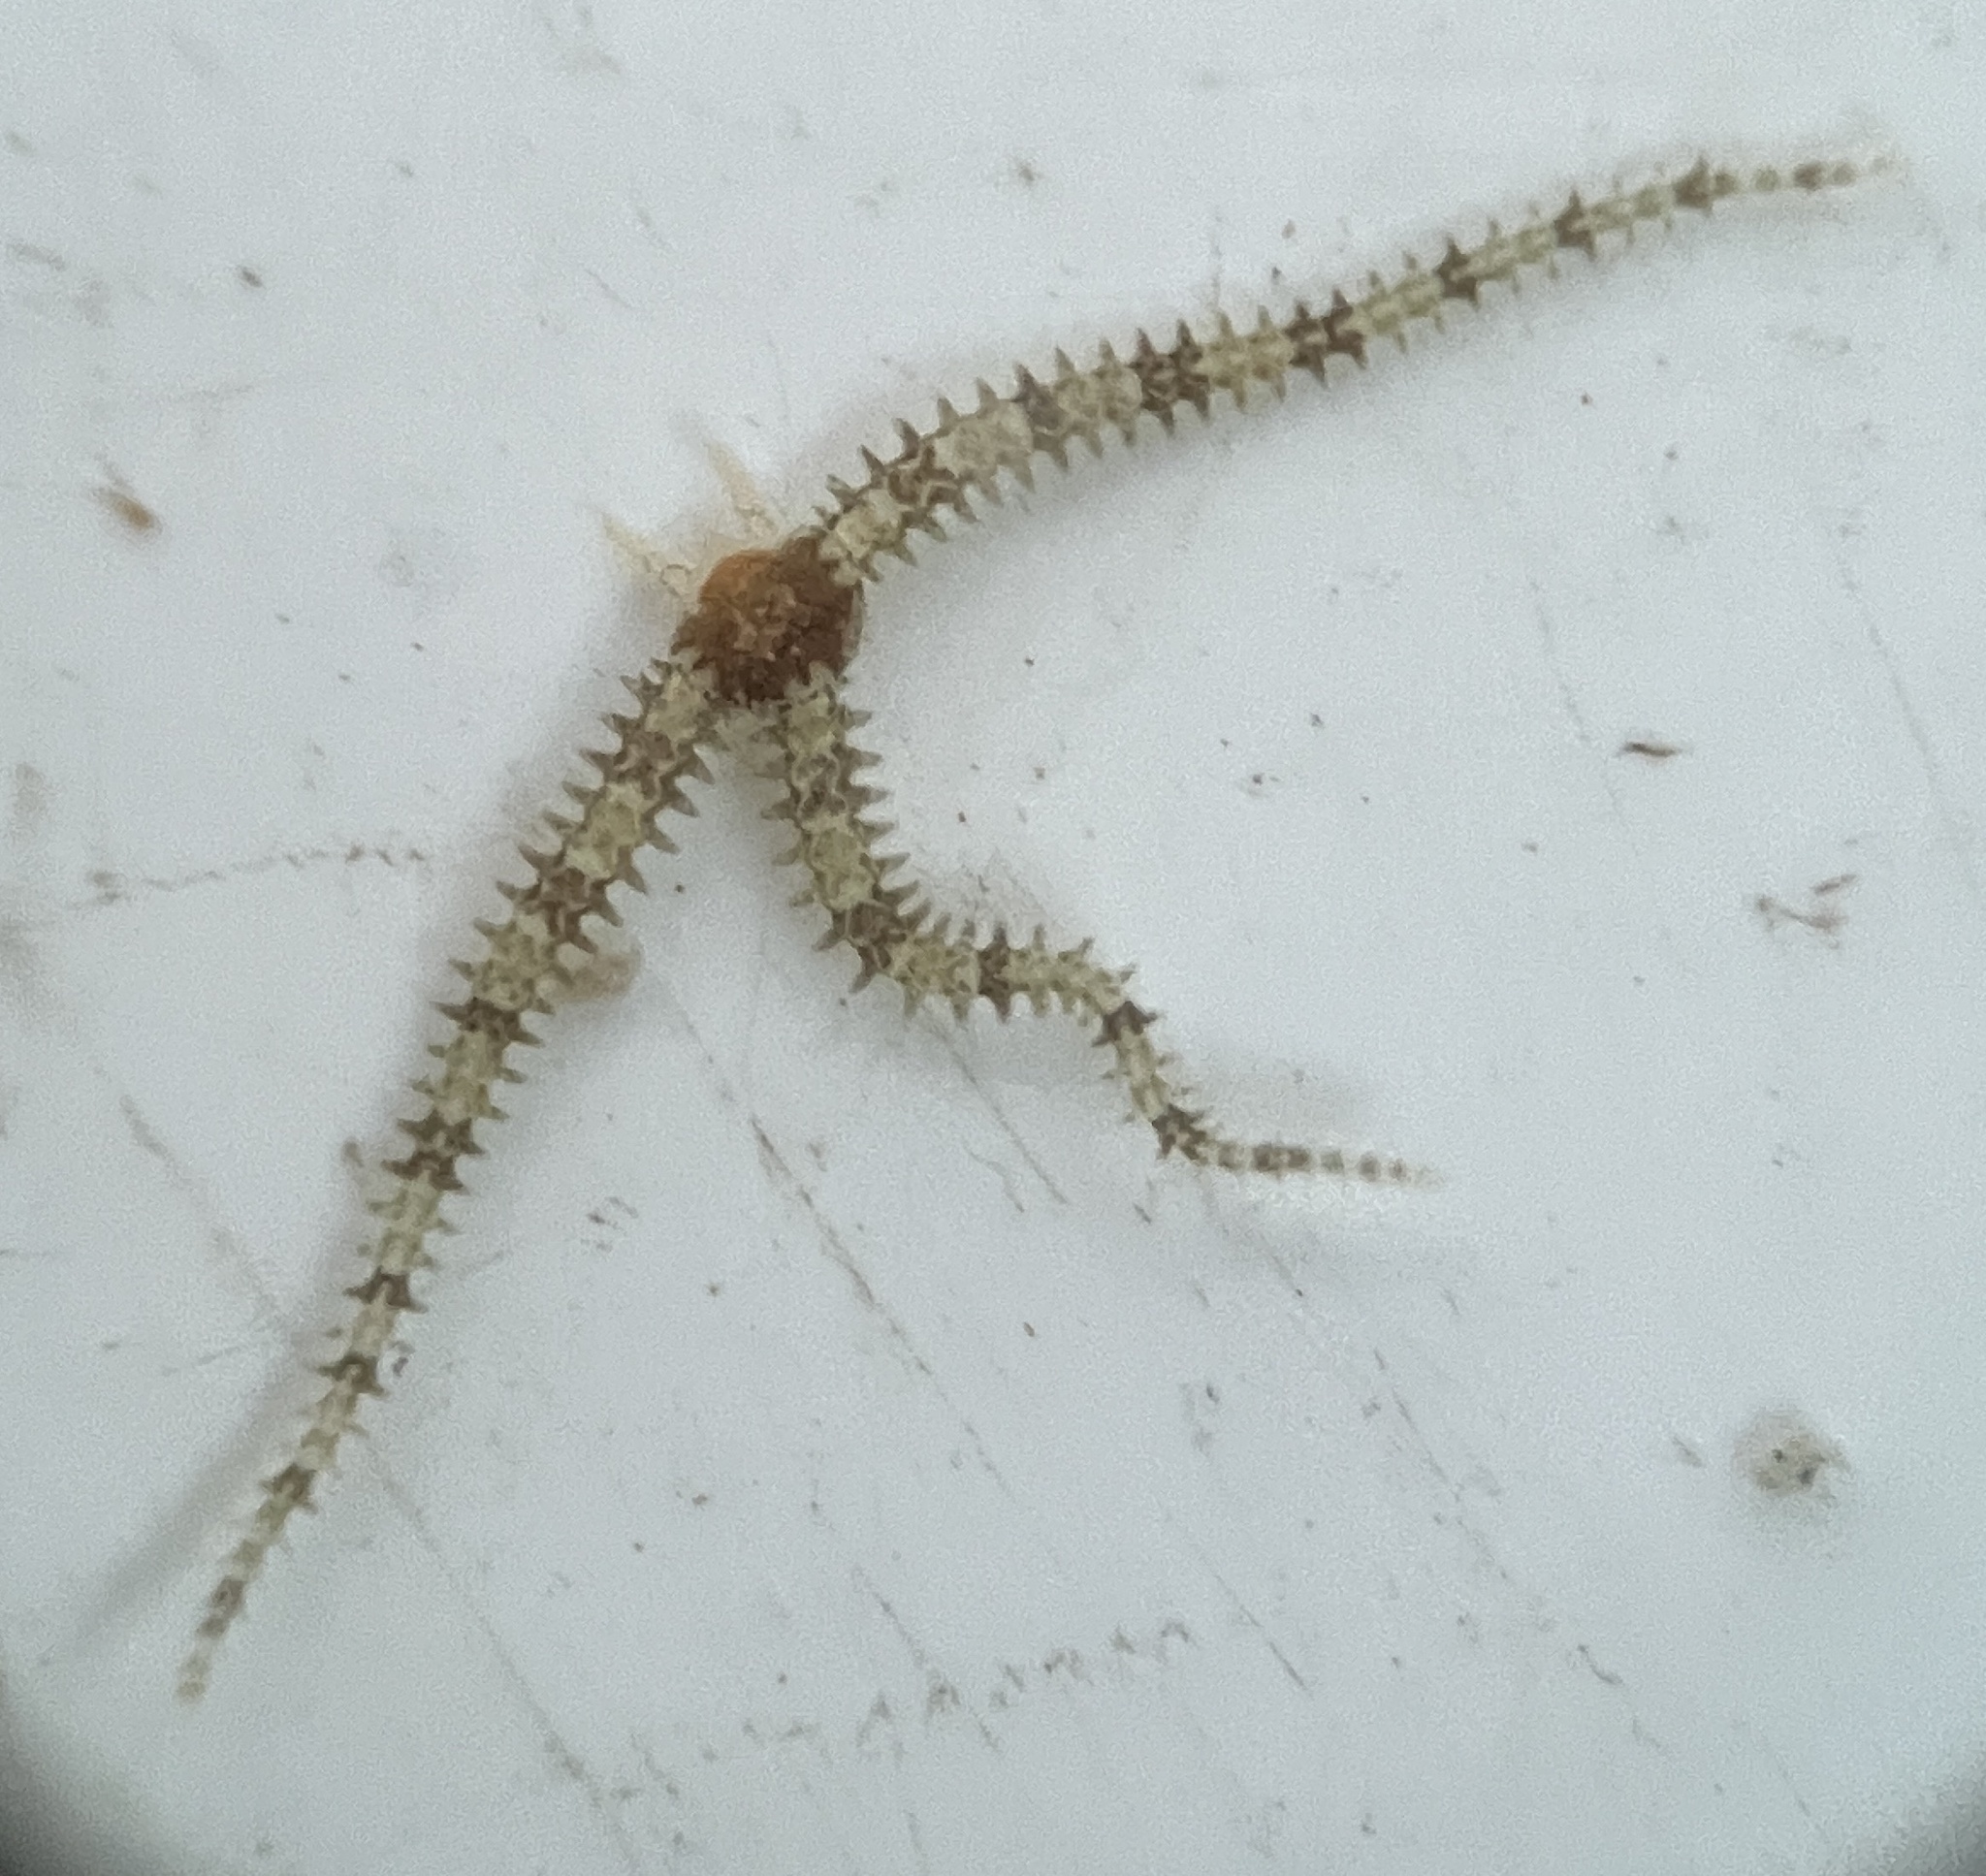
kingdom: Animalia
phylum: Echinodermata
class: Ophiuroidea
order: Amphilepidida
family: Ophiactidae
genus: Ophiactis
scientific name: Ophiactis savignyi
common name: Savigny's brittle star
